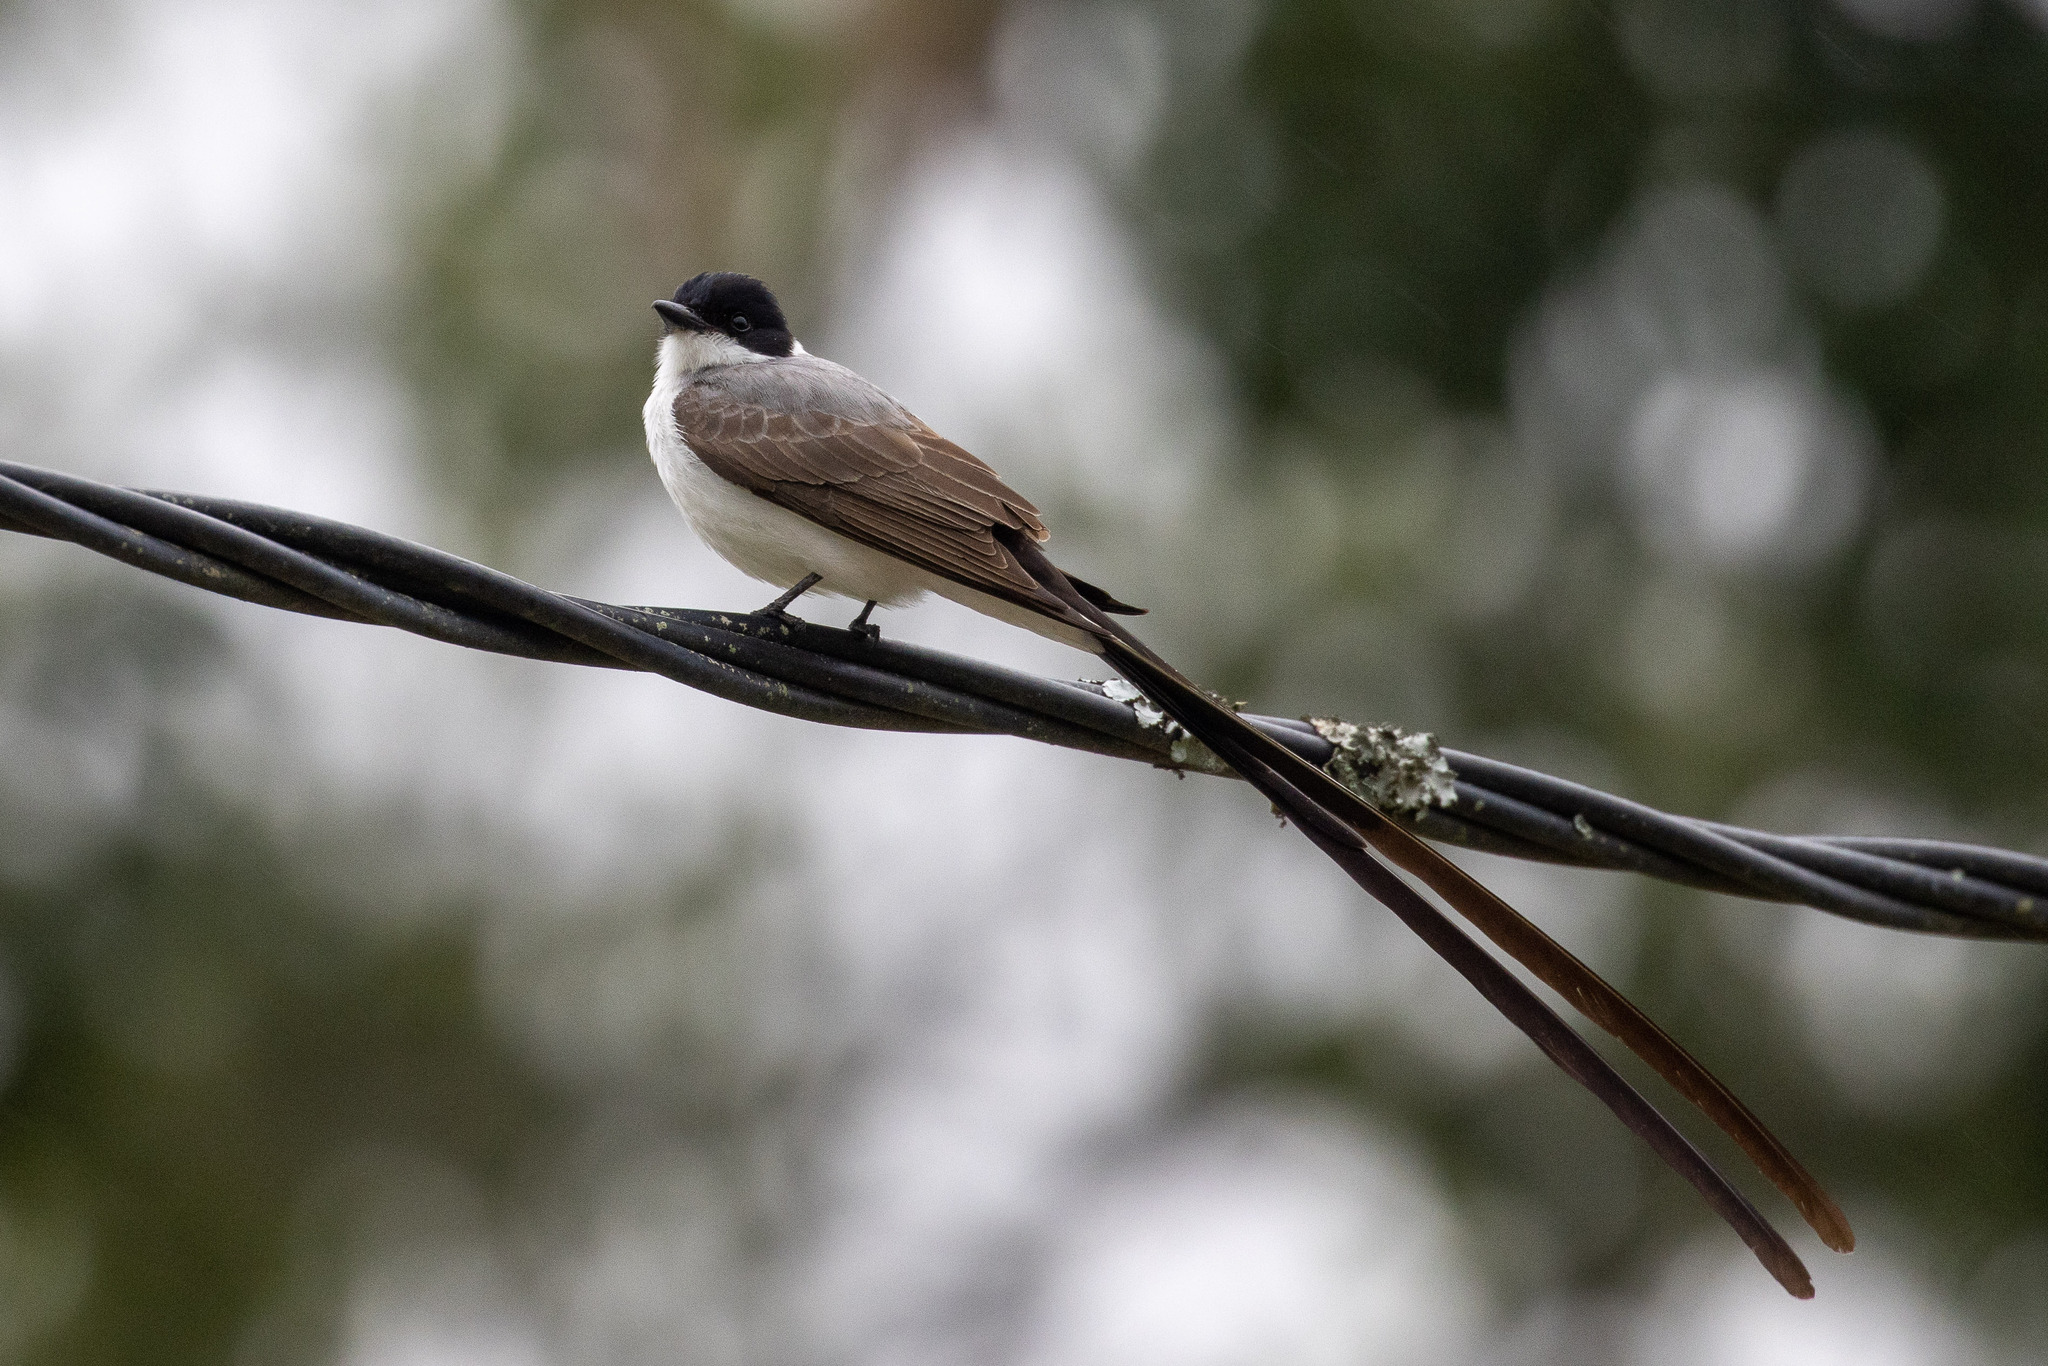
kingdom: Animalia
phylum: Chordata
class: Aves
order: Passeriformes
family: Tyrannidae
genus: Tyrannus
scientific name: Tyrannus savana
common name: Fork-tailed flycatcher
